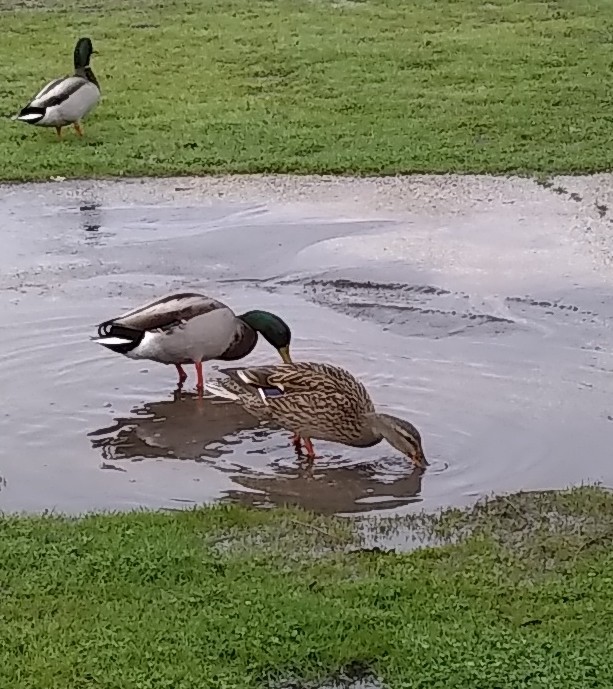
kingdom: Animalia
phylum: Chordata
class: Aves
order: Anseriformes
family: Anatidae
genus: Anas
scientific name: Anas platyrhynchos
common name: Mallard
